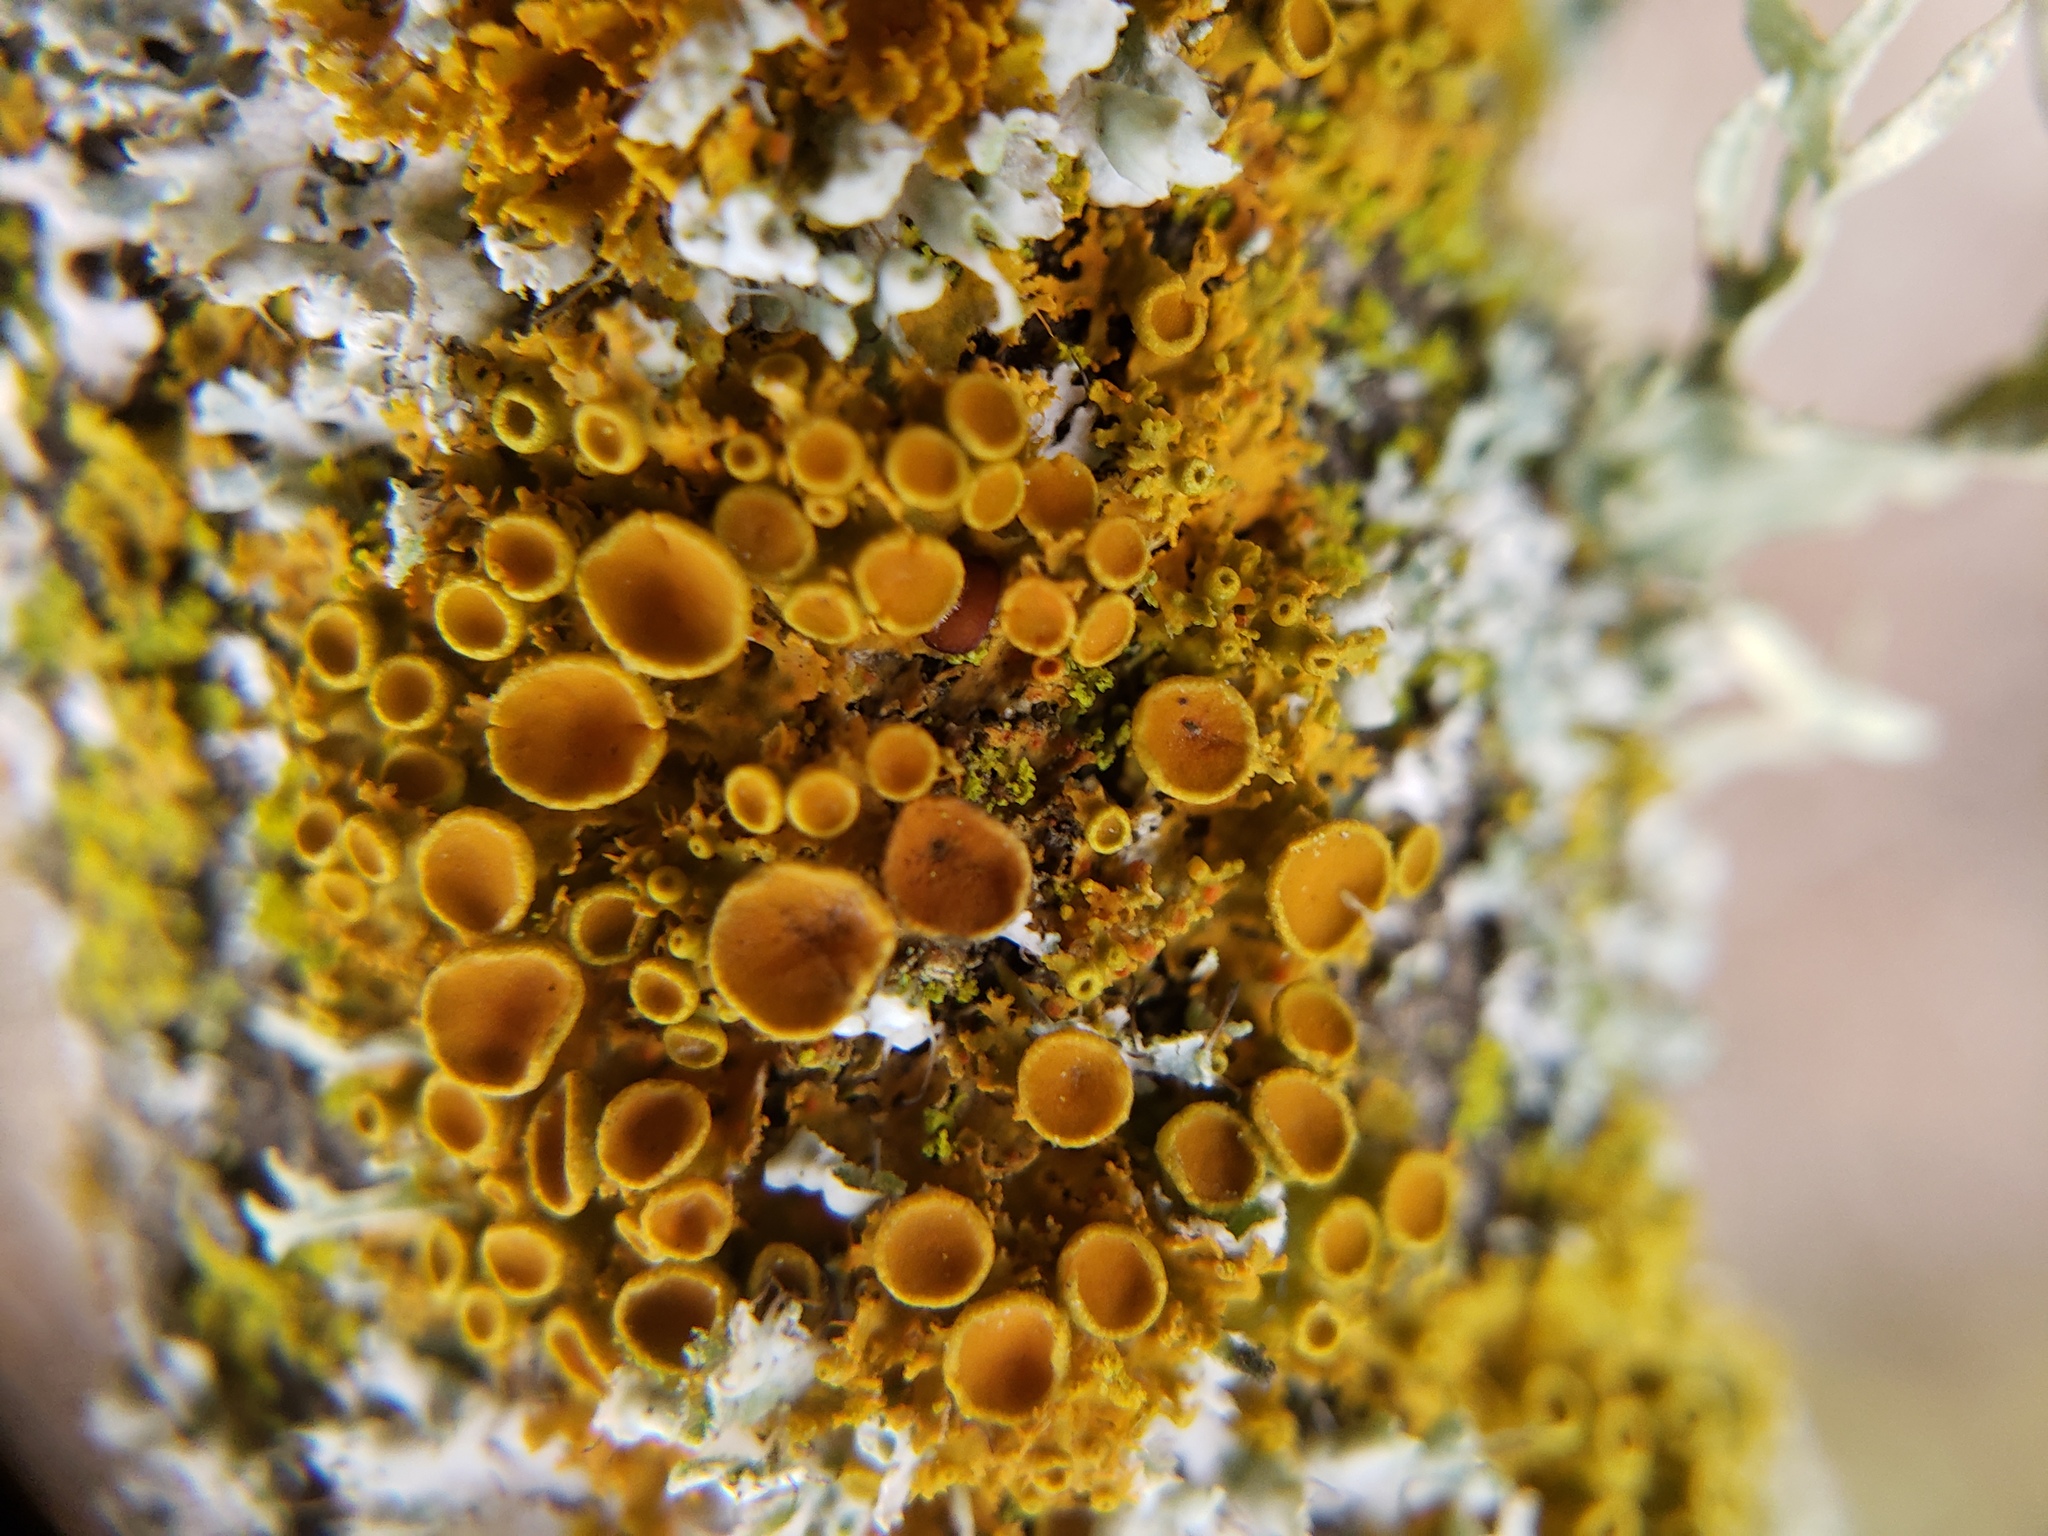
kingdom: Fungi
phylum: Ascomycota
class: Lecanoromycetes
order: Teloschistales
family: Teloschistaceae
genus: Xanthoria
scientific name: Xanthoria parietina
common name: Common orange lichen
